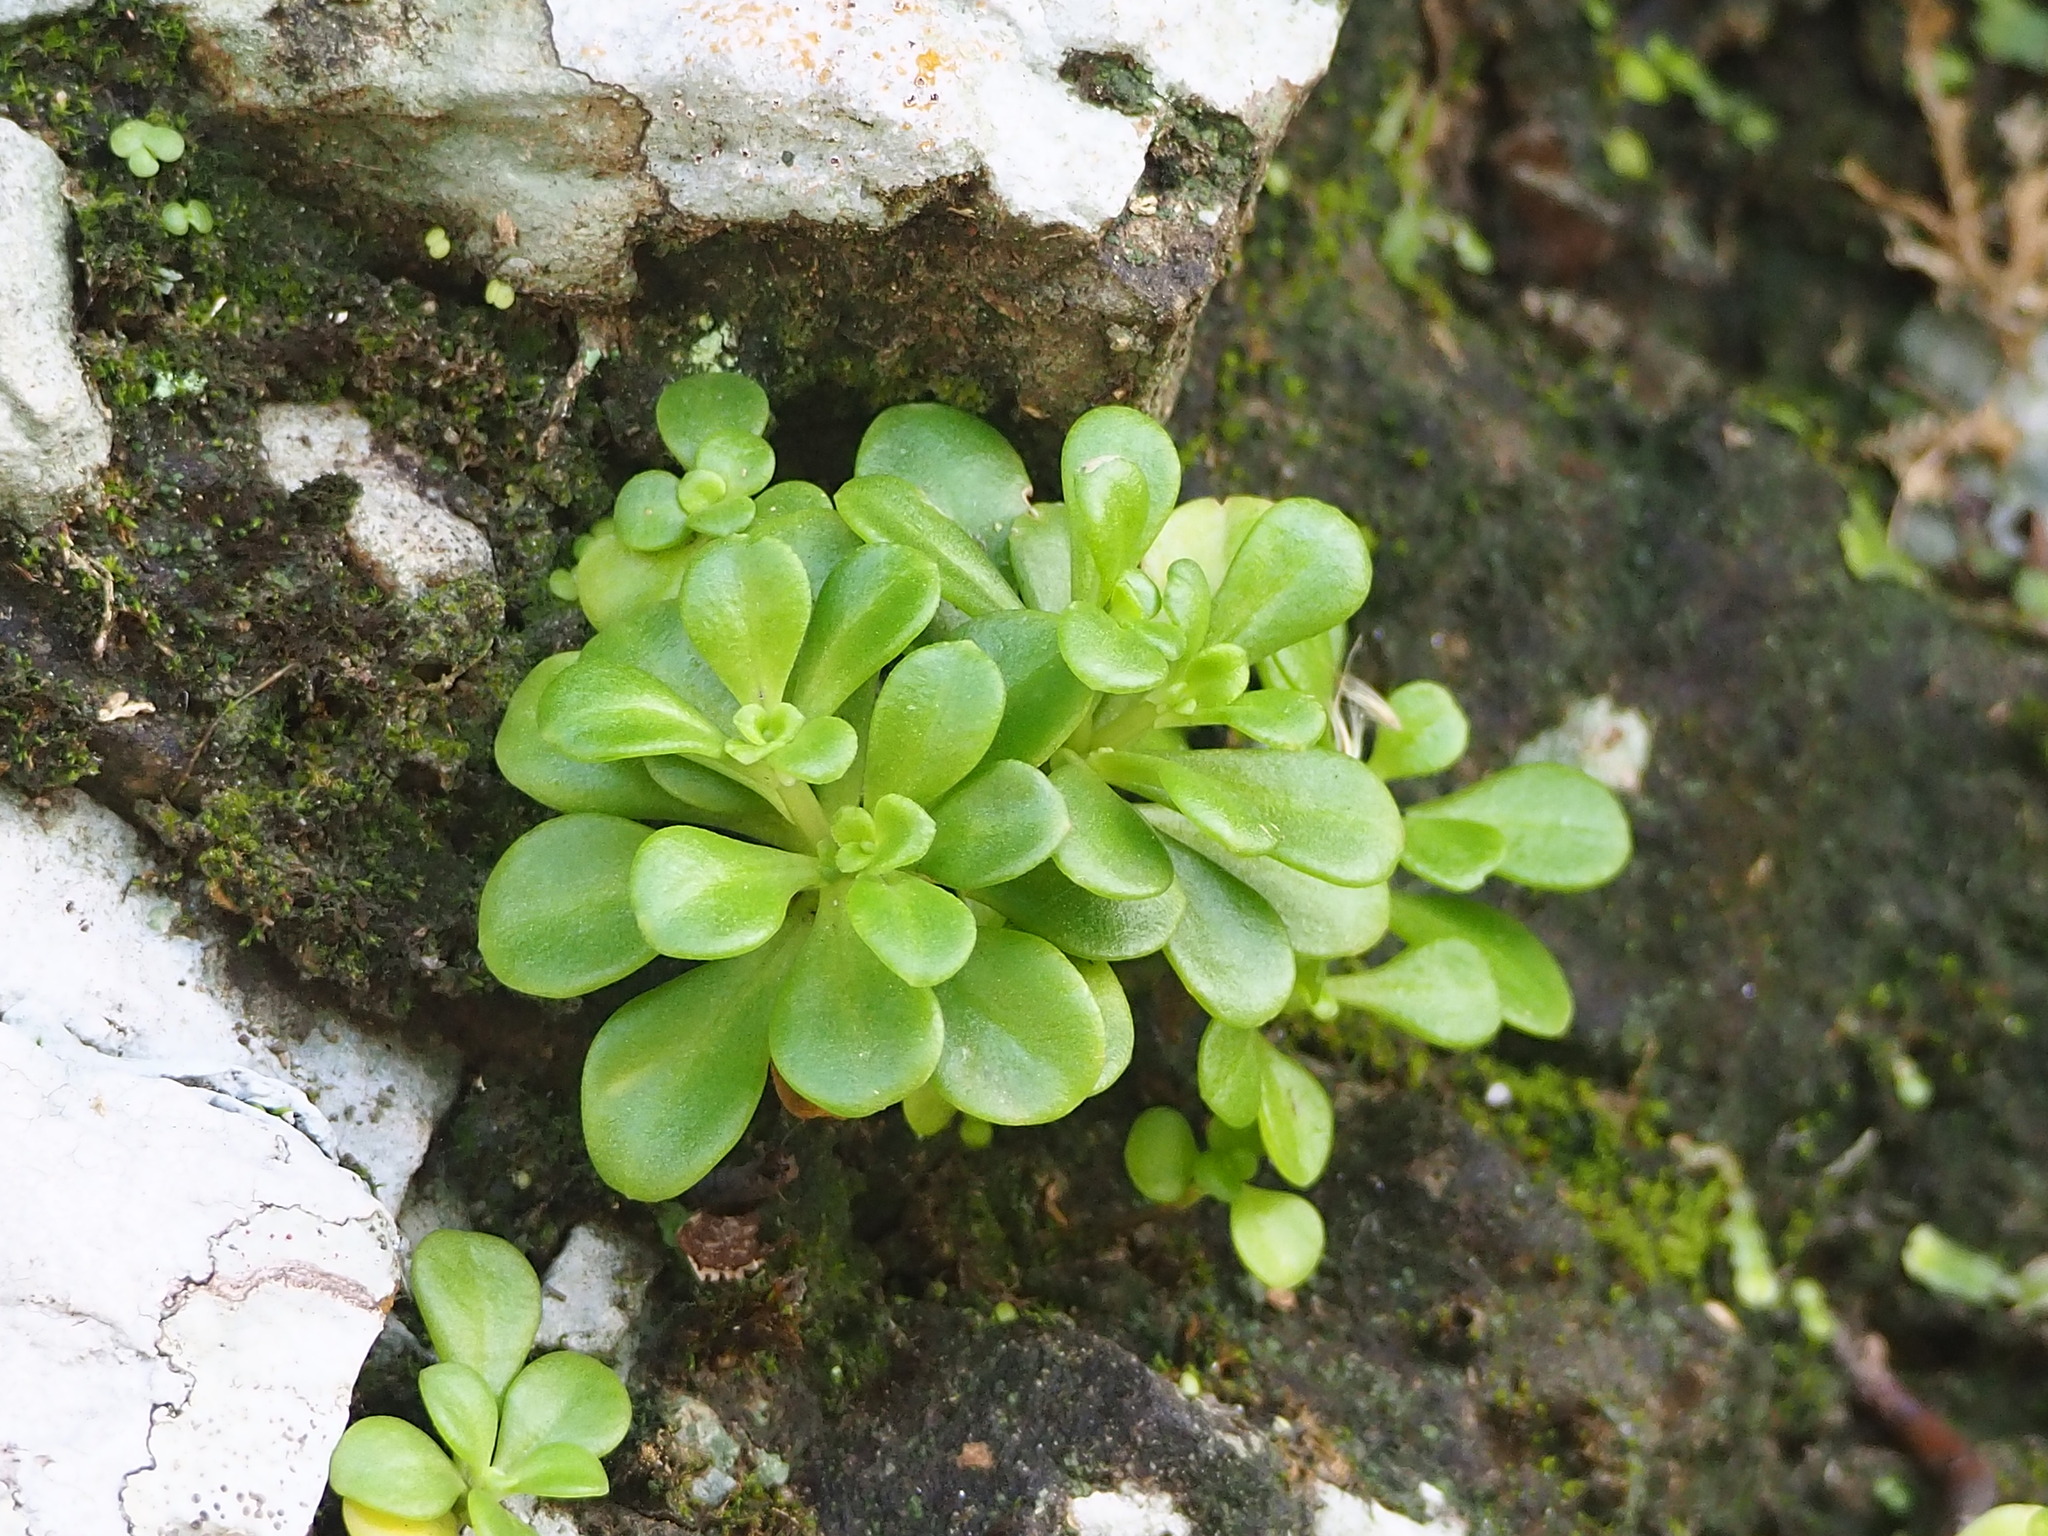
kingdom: Plantae
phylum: Tracheophyta
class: Magnoliopsida
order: Saxifragales
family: Crassulaceae
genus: Sedum
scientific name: Sedum formosanum
